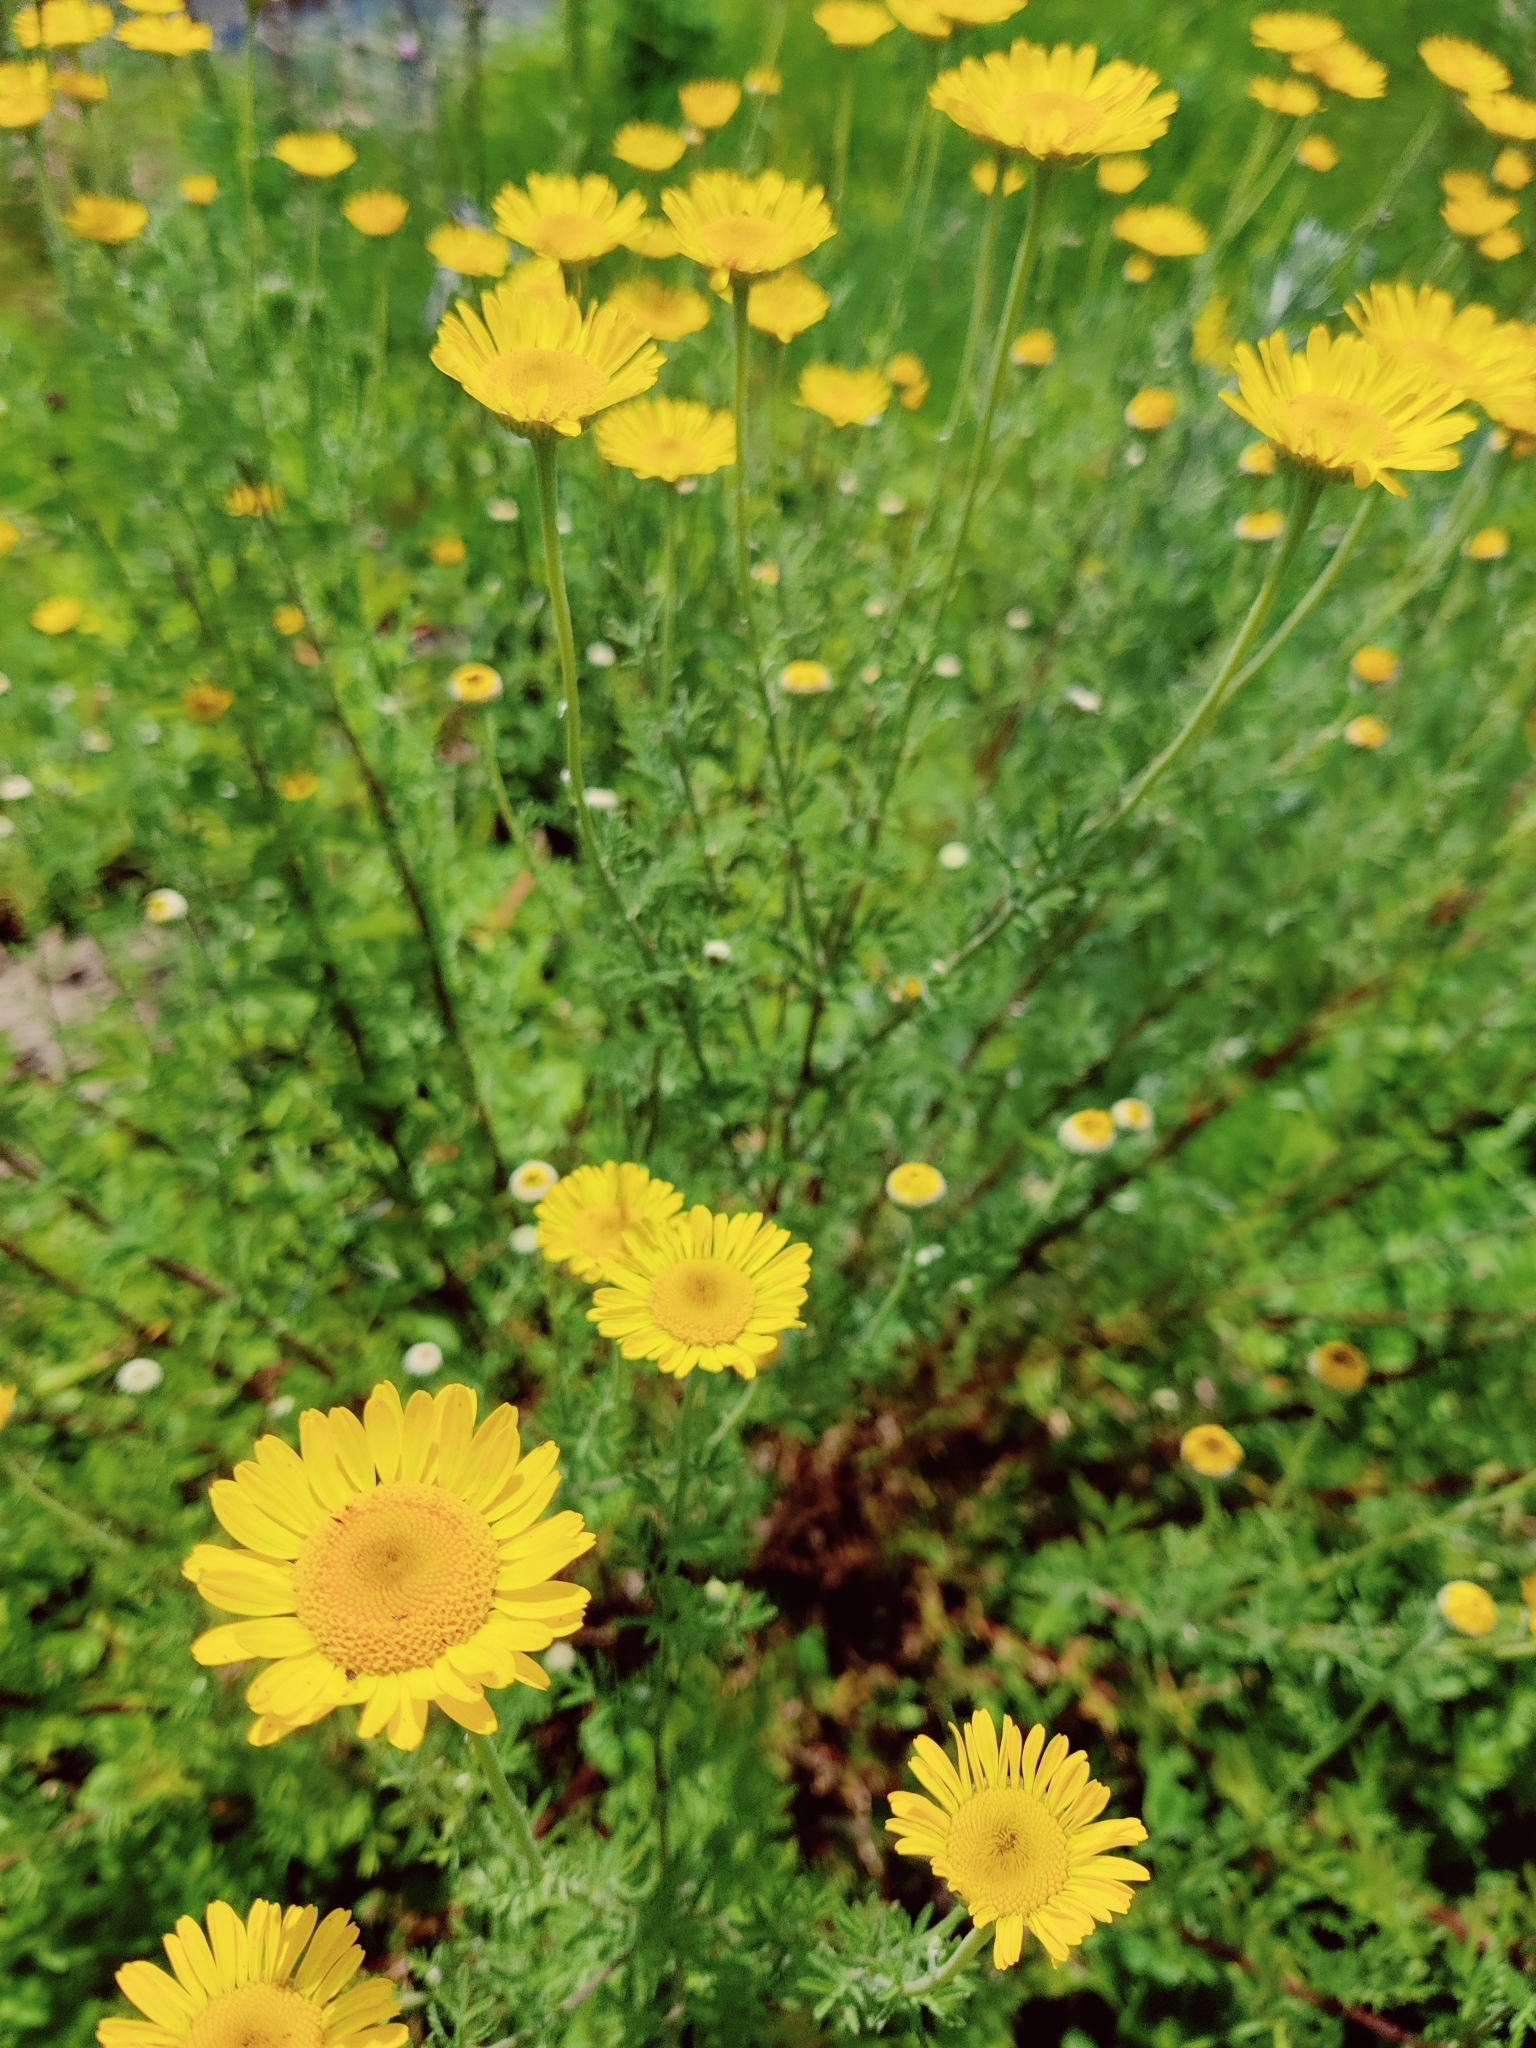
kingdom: Plantae
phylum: Tracheophyta
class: Magnoliopsida
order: Asterales
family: Asteraceae
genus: Cota
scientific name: Cota tinctoria
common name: Golden chamomile
